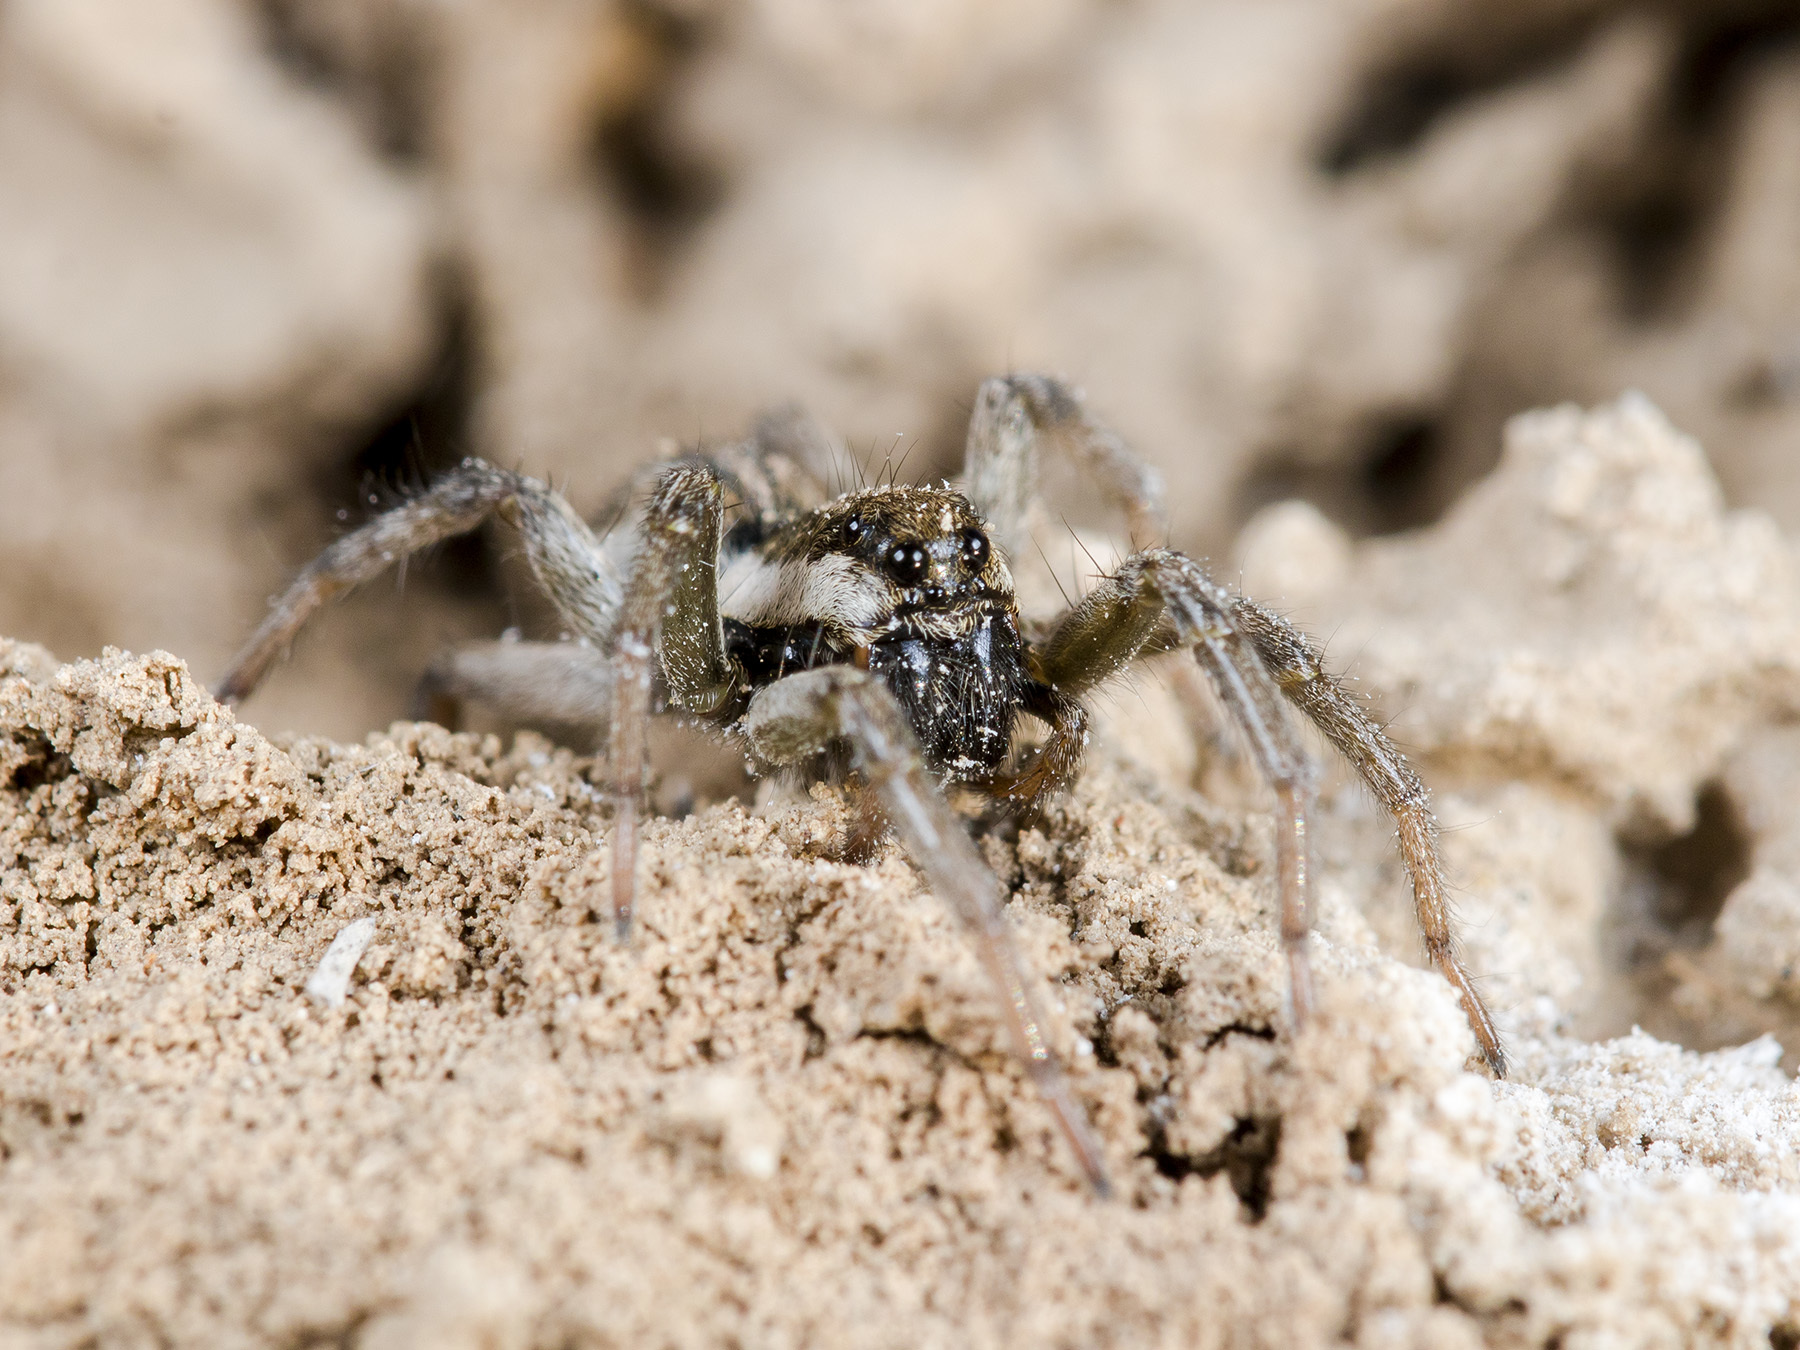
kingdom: Animalia
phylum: Arthropoda
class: Arachnida
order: Araneae
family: Lycosidae
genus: Alopecosa
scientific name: Alopecosa marikovskyi
